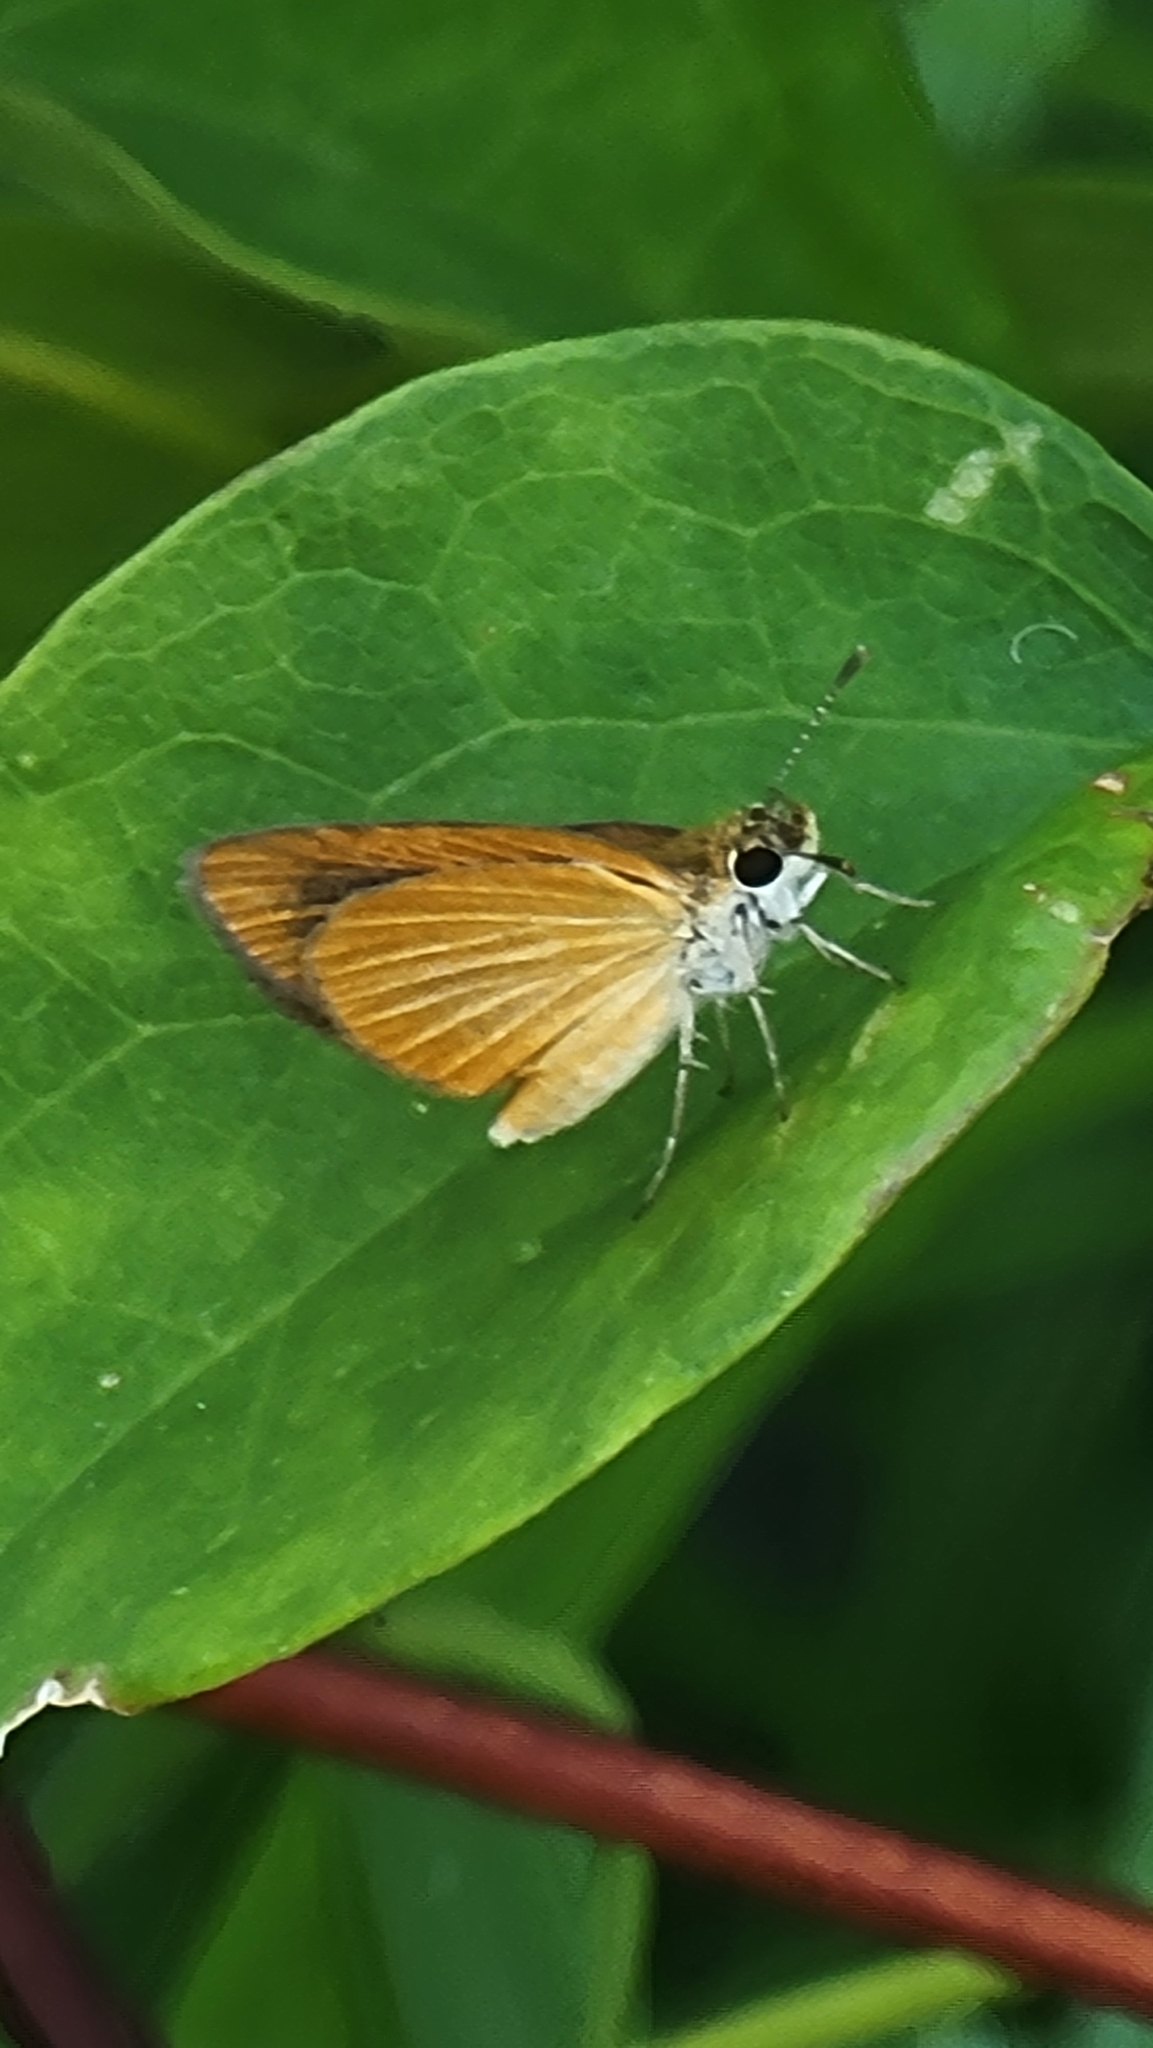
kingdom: Animalia
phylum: Arthropoda
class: Insecta
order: Lepidoptera
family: Hesperiidae
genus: Ancyloxypha
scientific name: Ancyloxypha numitor
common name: Least skipper
